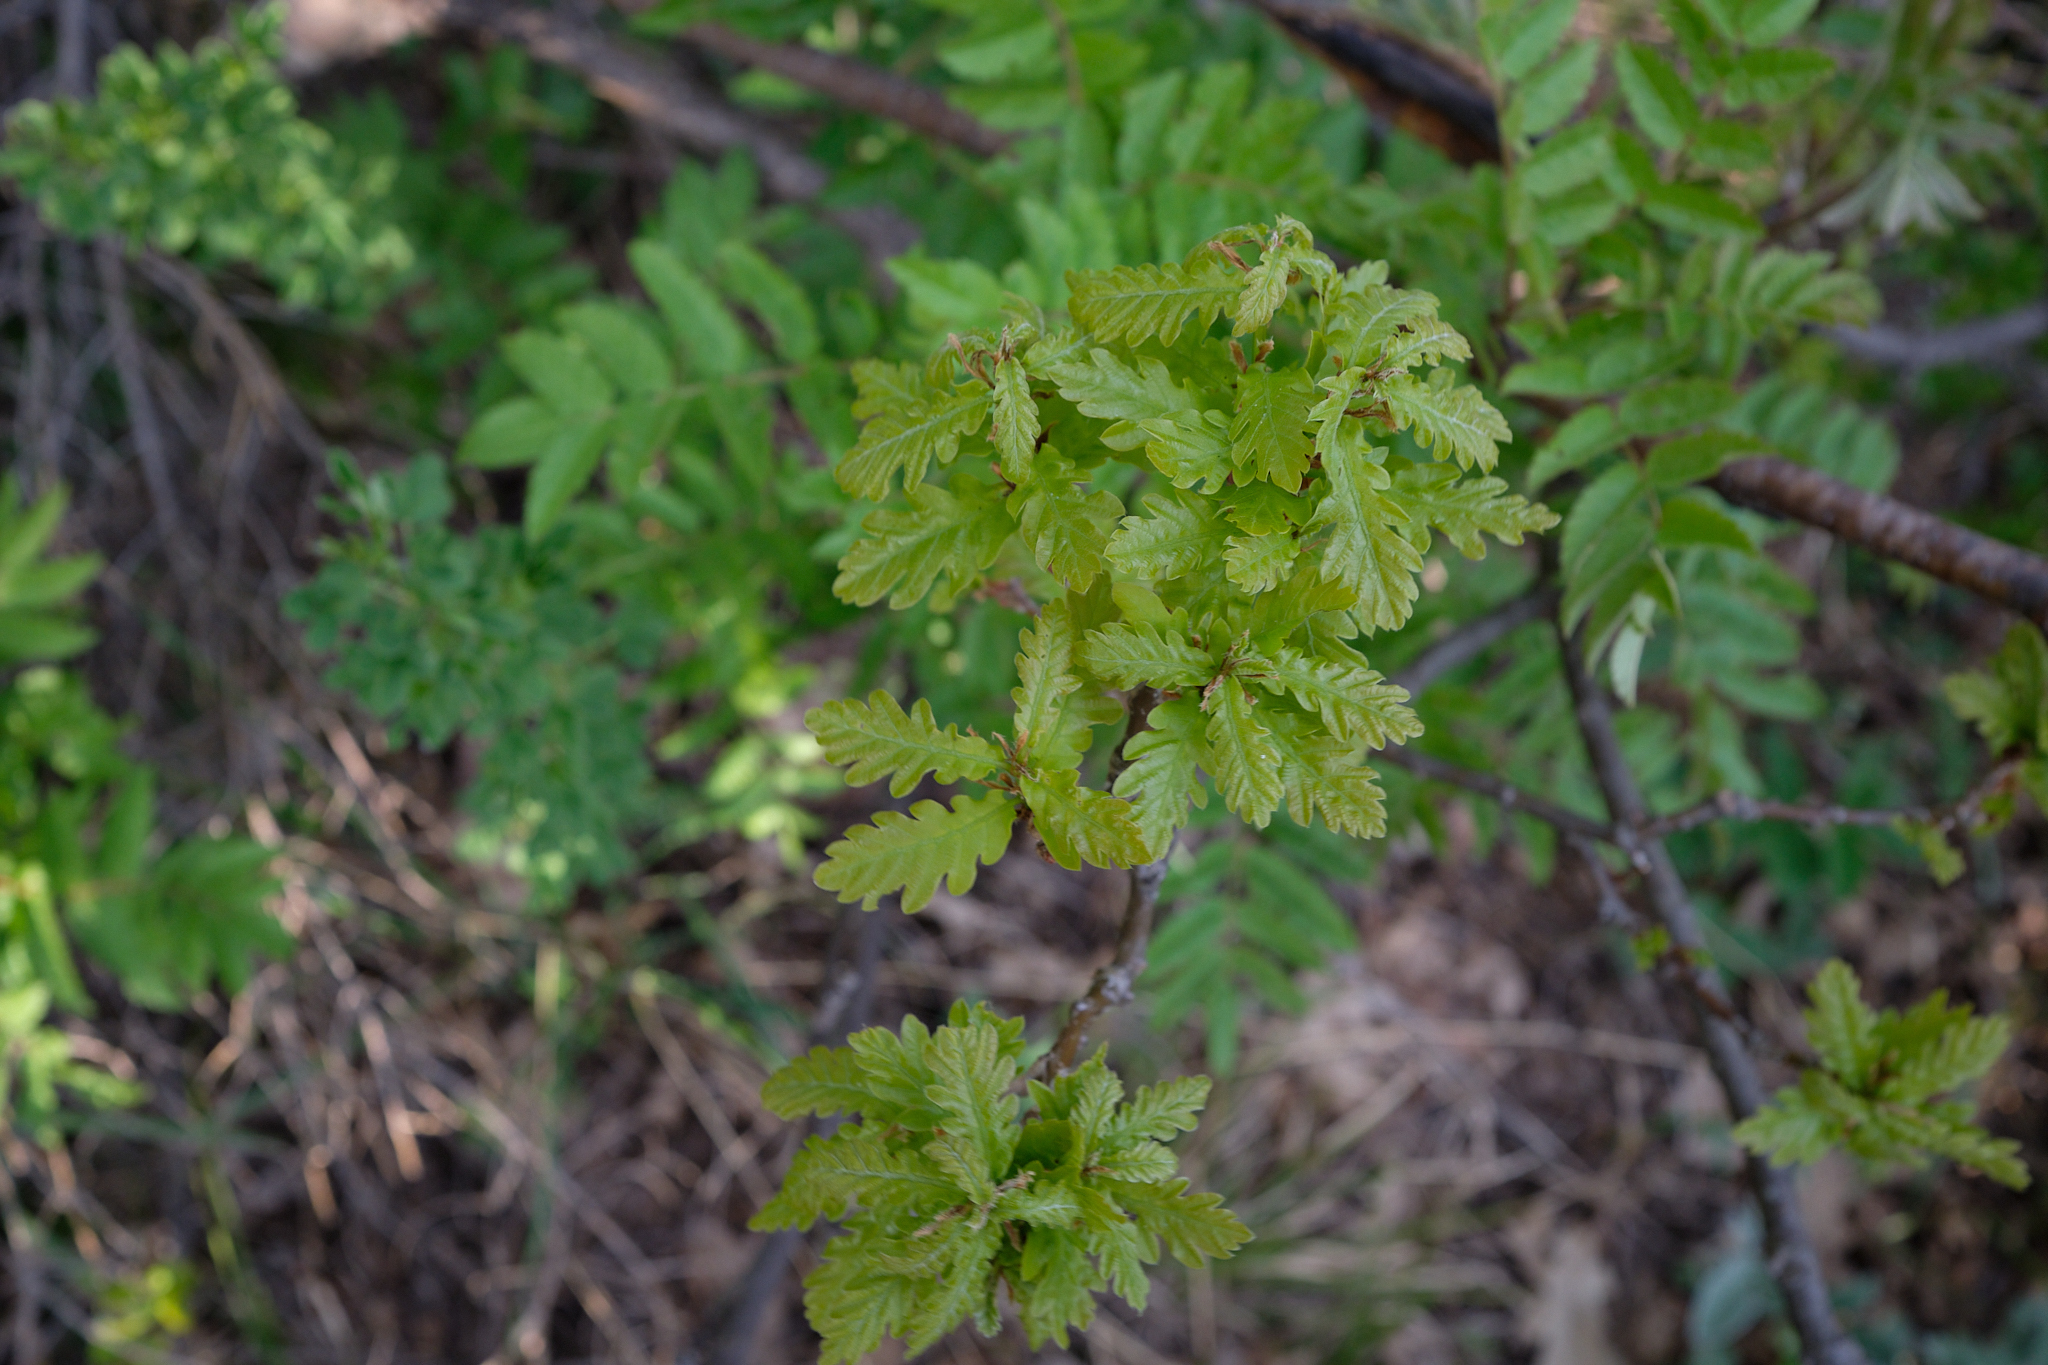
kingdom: Plantae
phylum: Tracheophyta
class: Magnoliopsida
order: Fagales
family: Fagaceae
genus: Quercus
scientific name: Quercus robur
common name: Pedunculate oak
